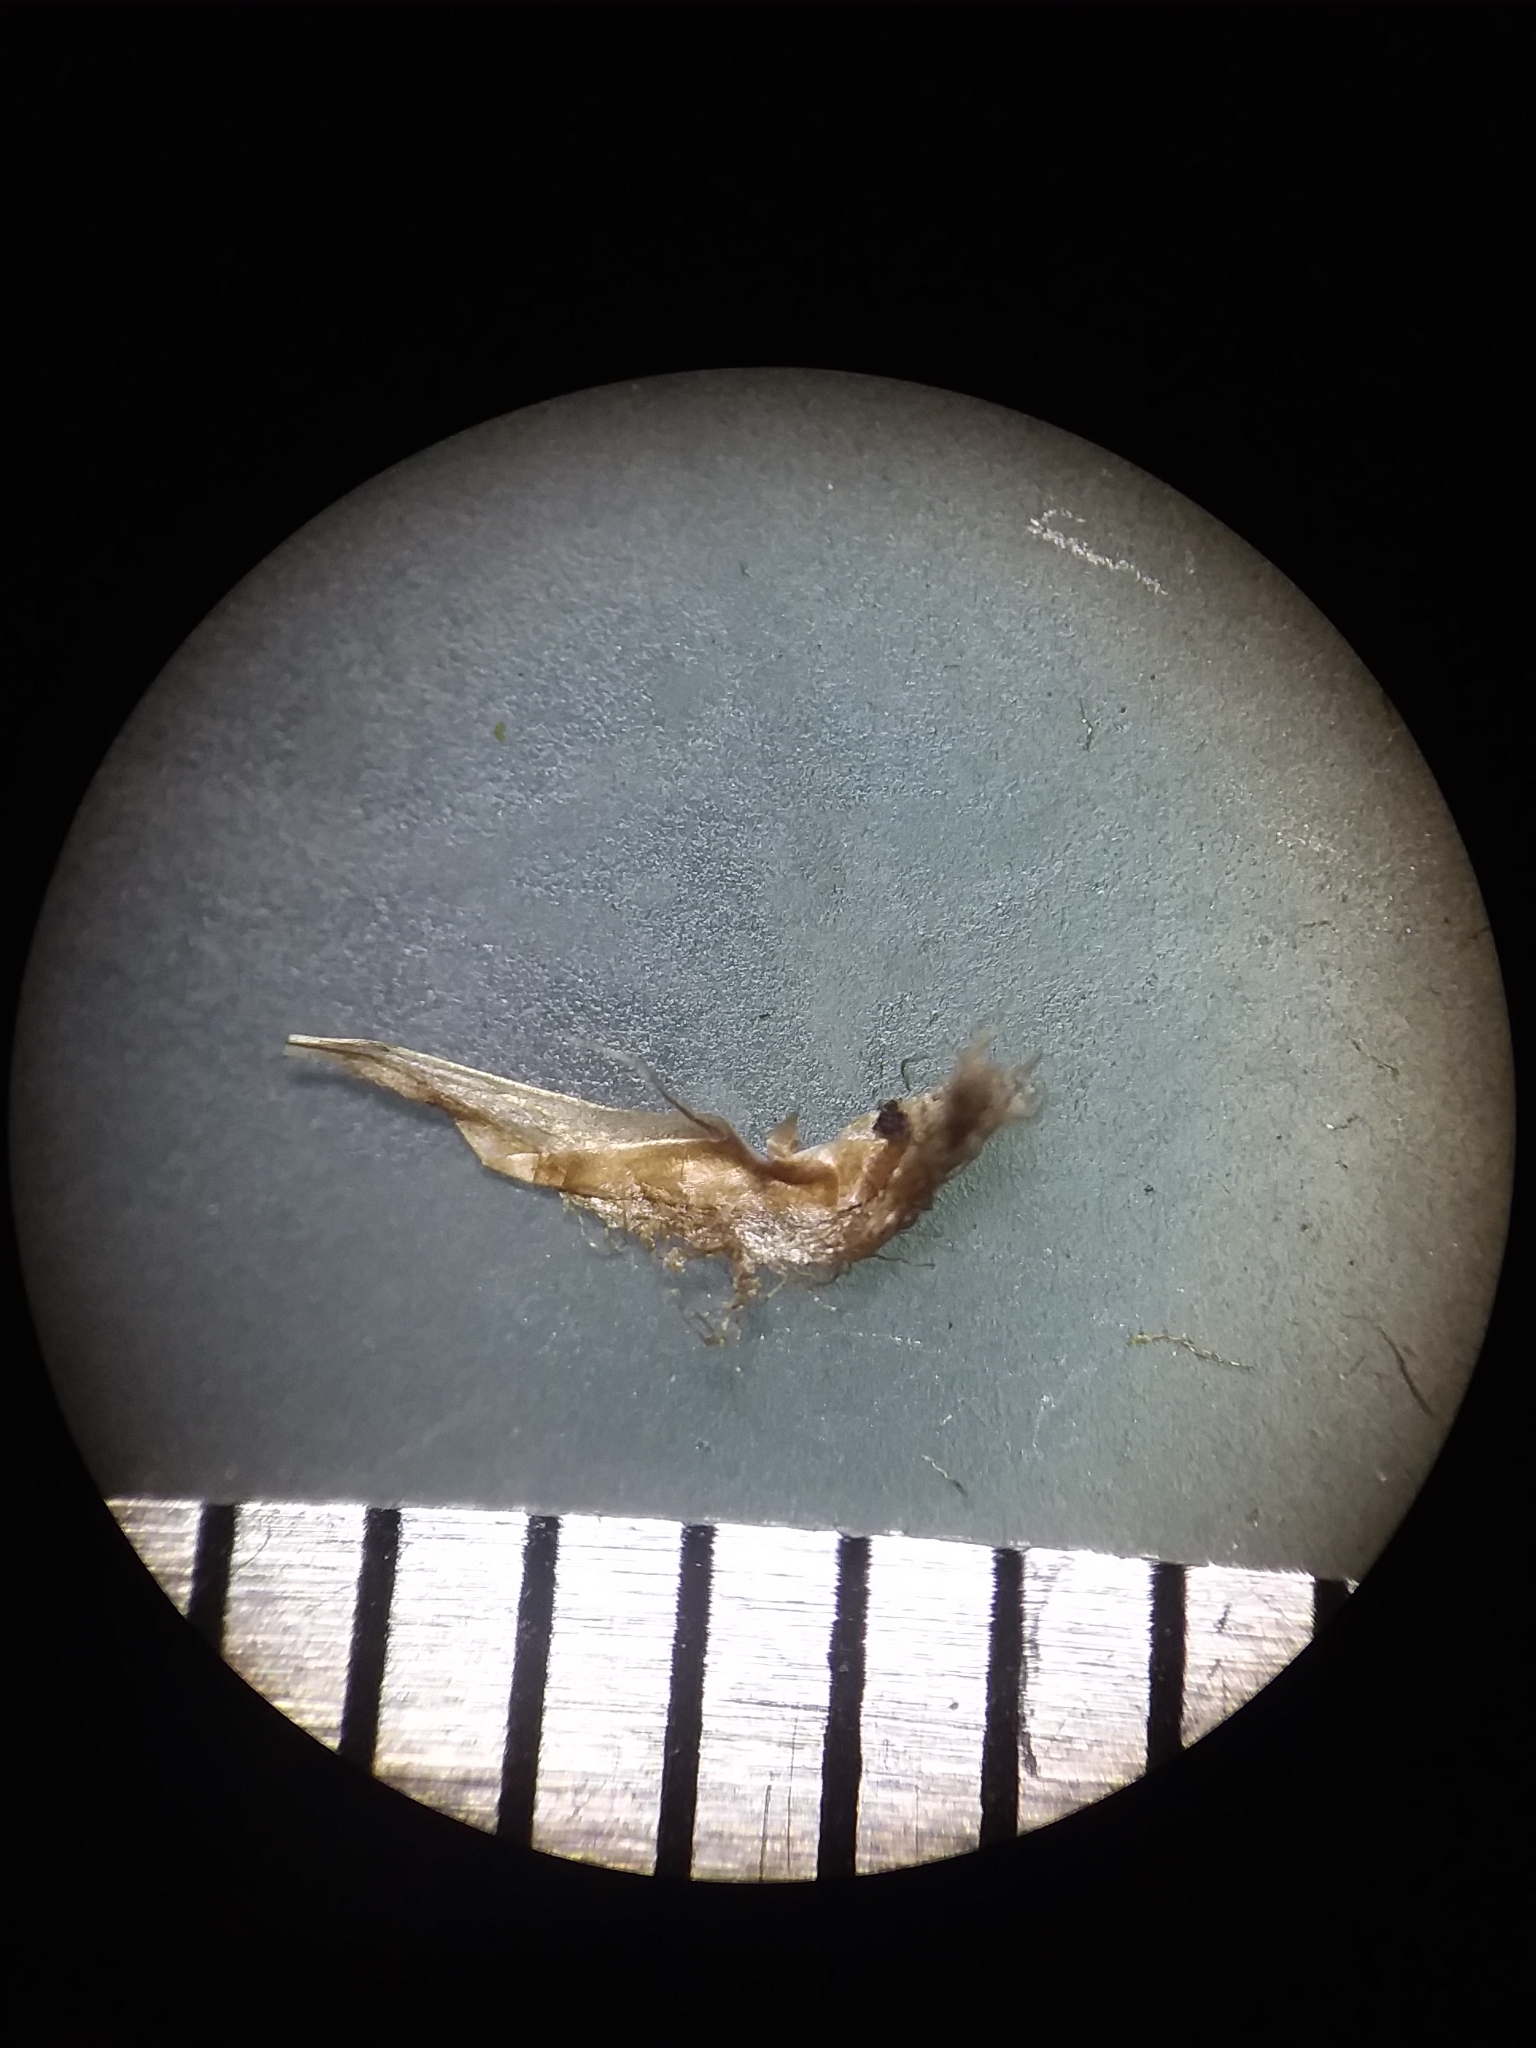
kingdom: Plantae
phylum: Tracheophyta
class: Liliopsida
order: Poales
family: Xyridaceae
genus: Xyris
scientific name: Xyris fimbriata
